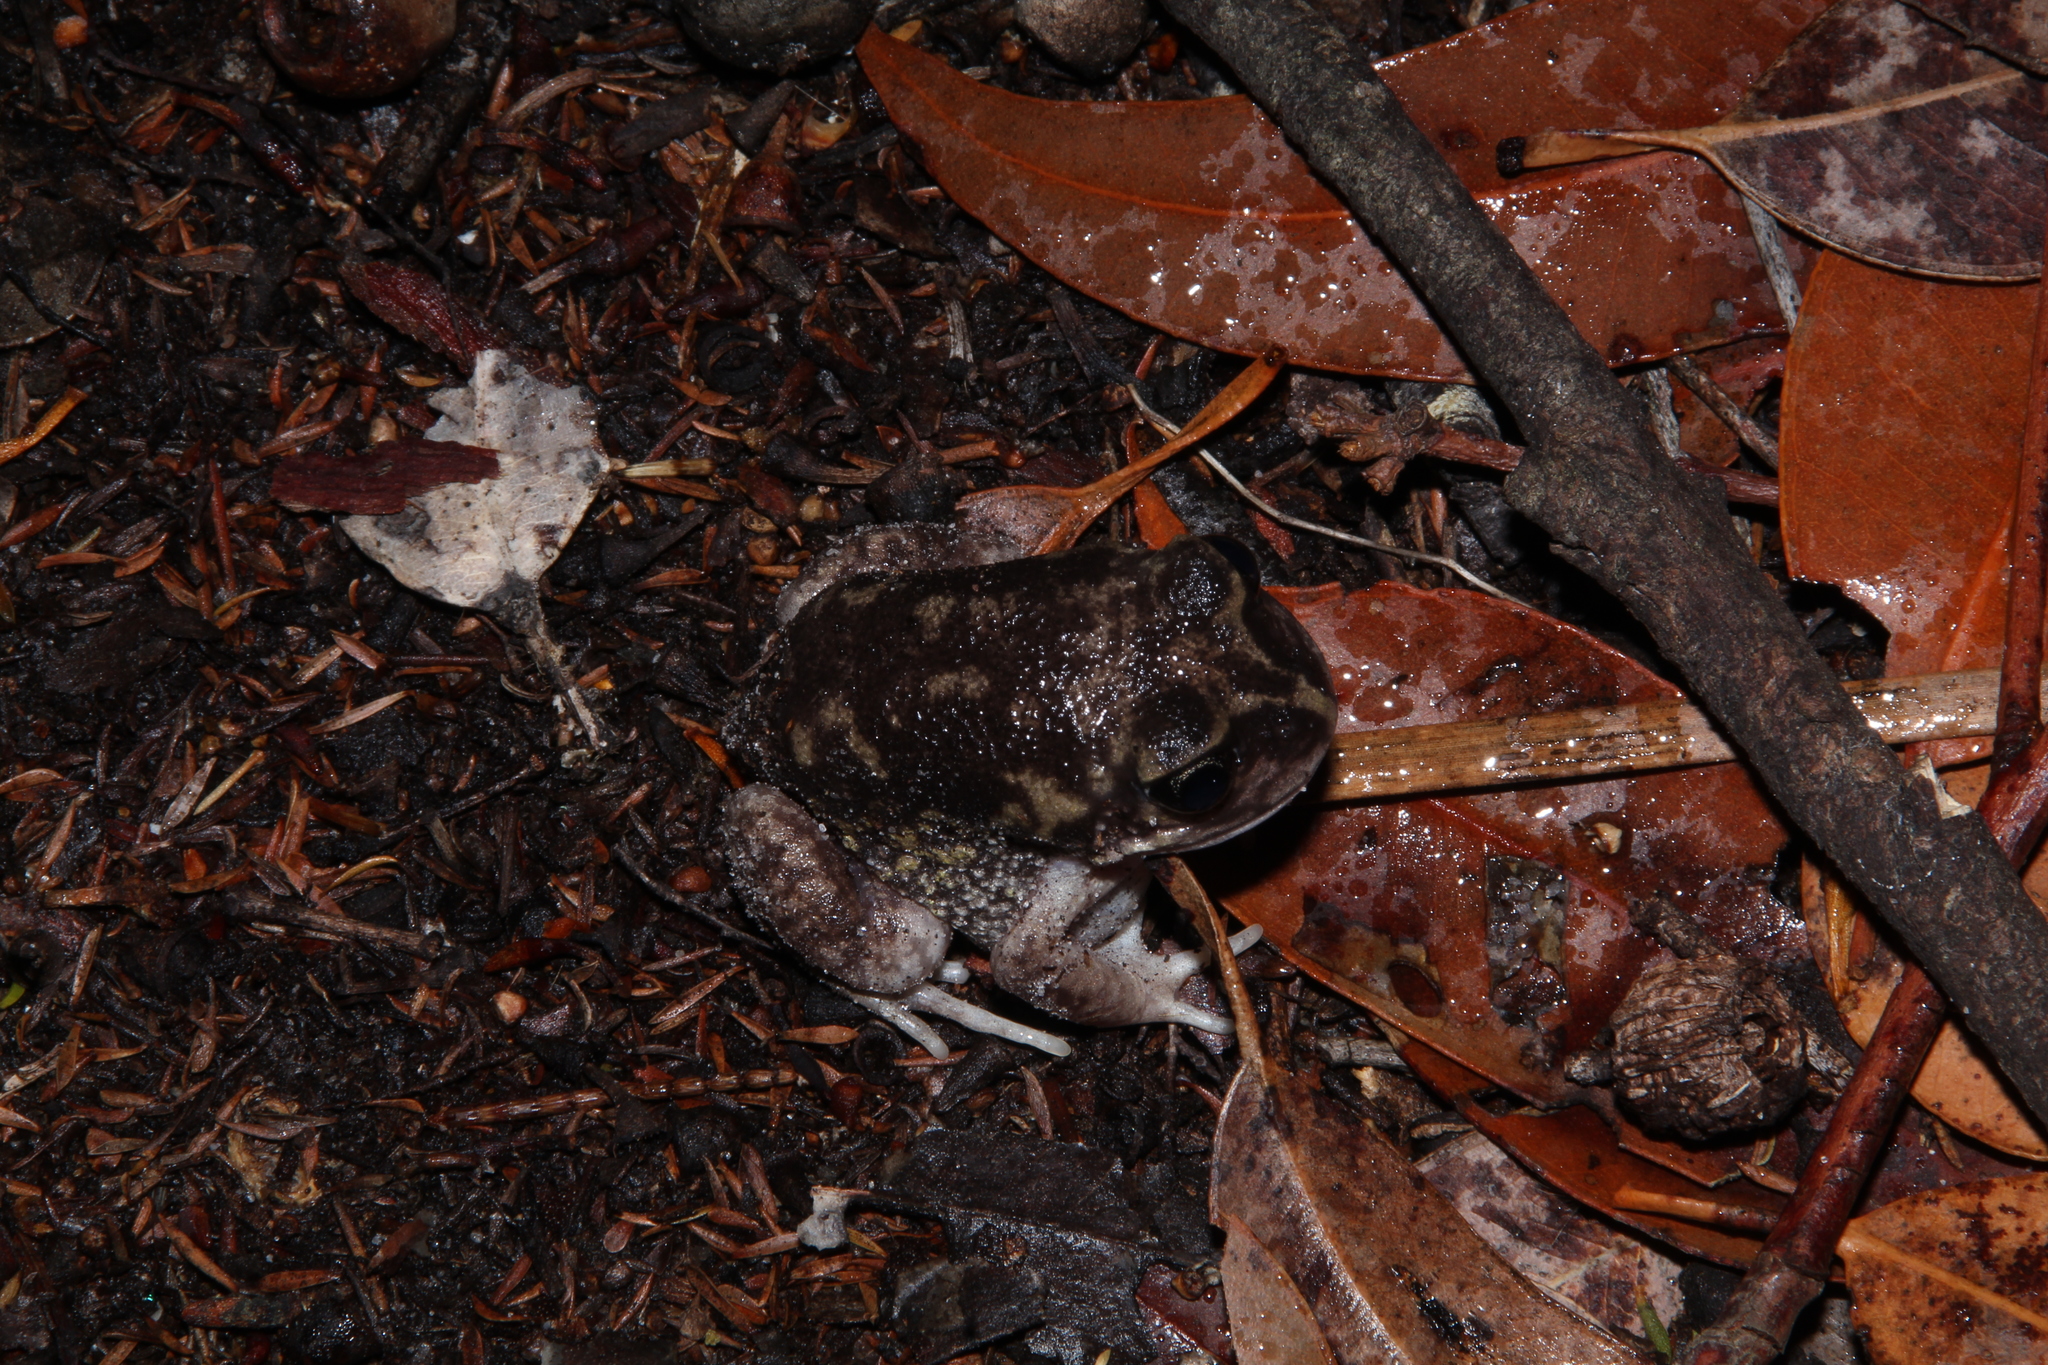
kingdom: Animalia
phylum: Chordata
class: Amphibia
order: Anura
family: Limnodynastidae
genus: Heleioporus
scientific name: Heleioporus eyrei
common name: Moaning frog
